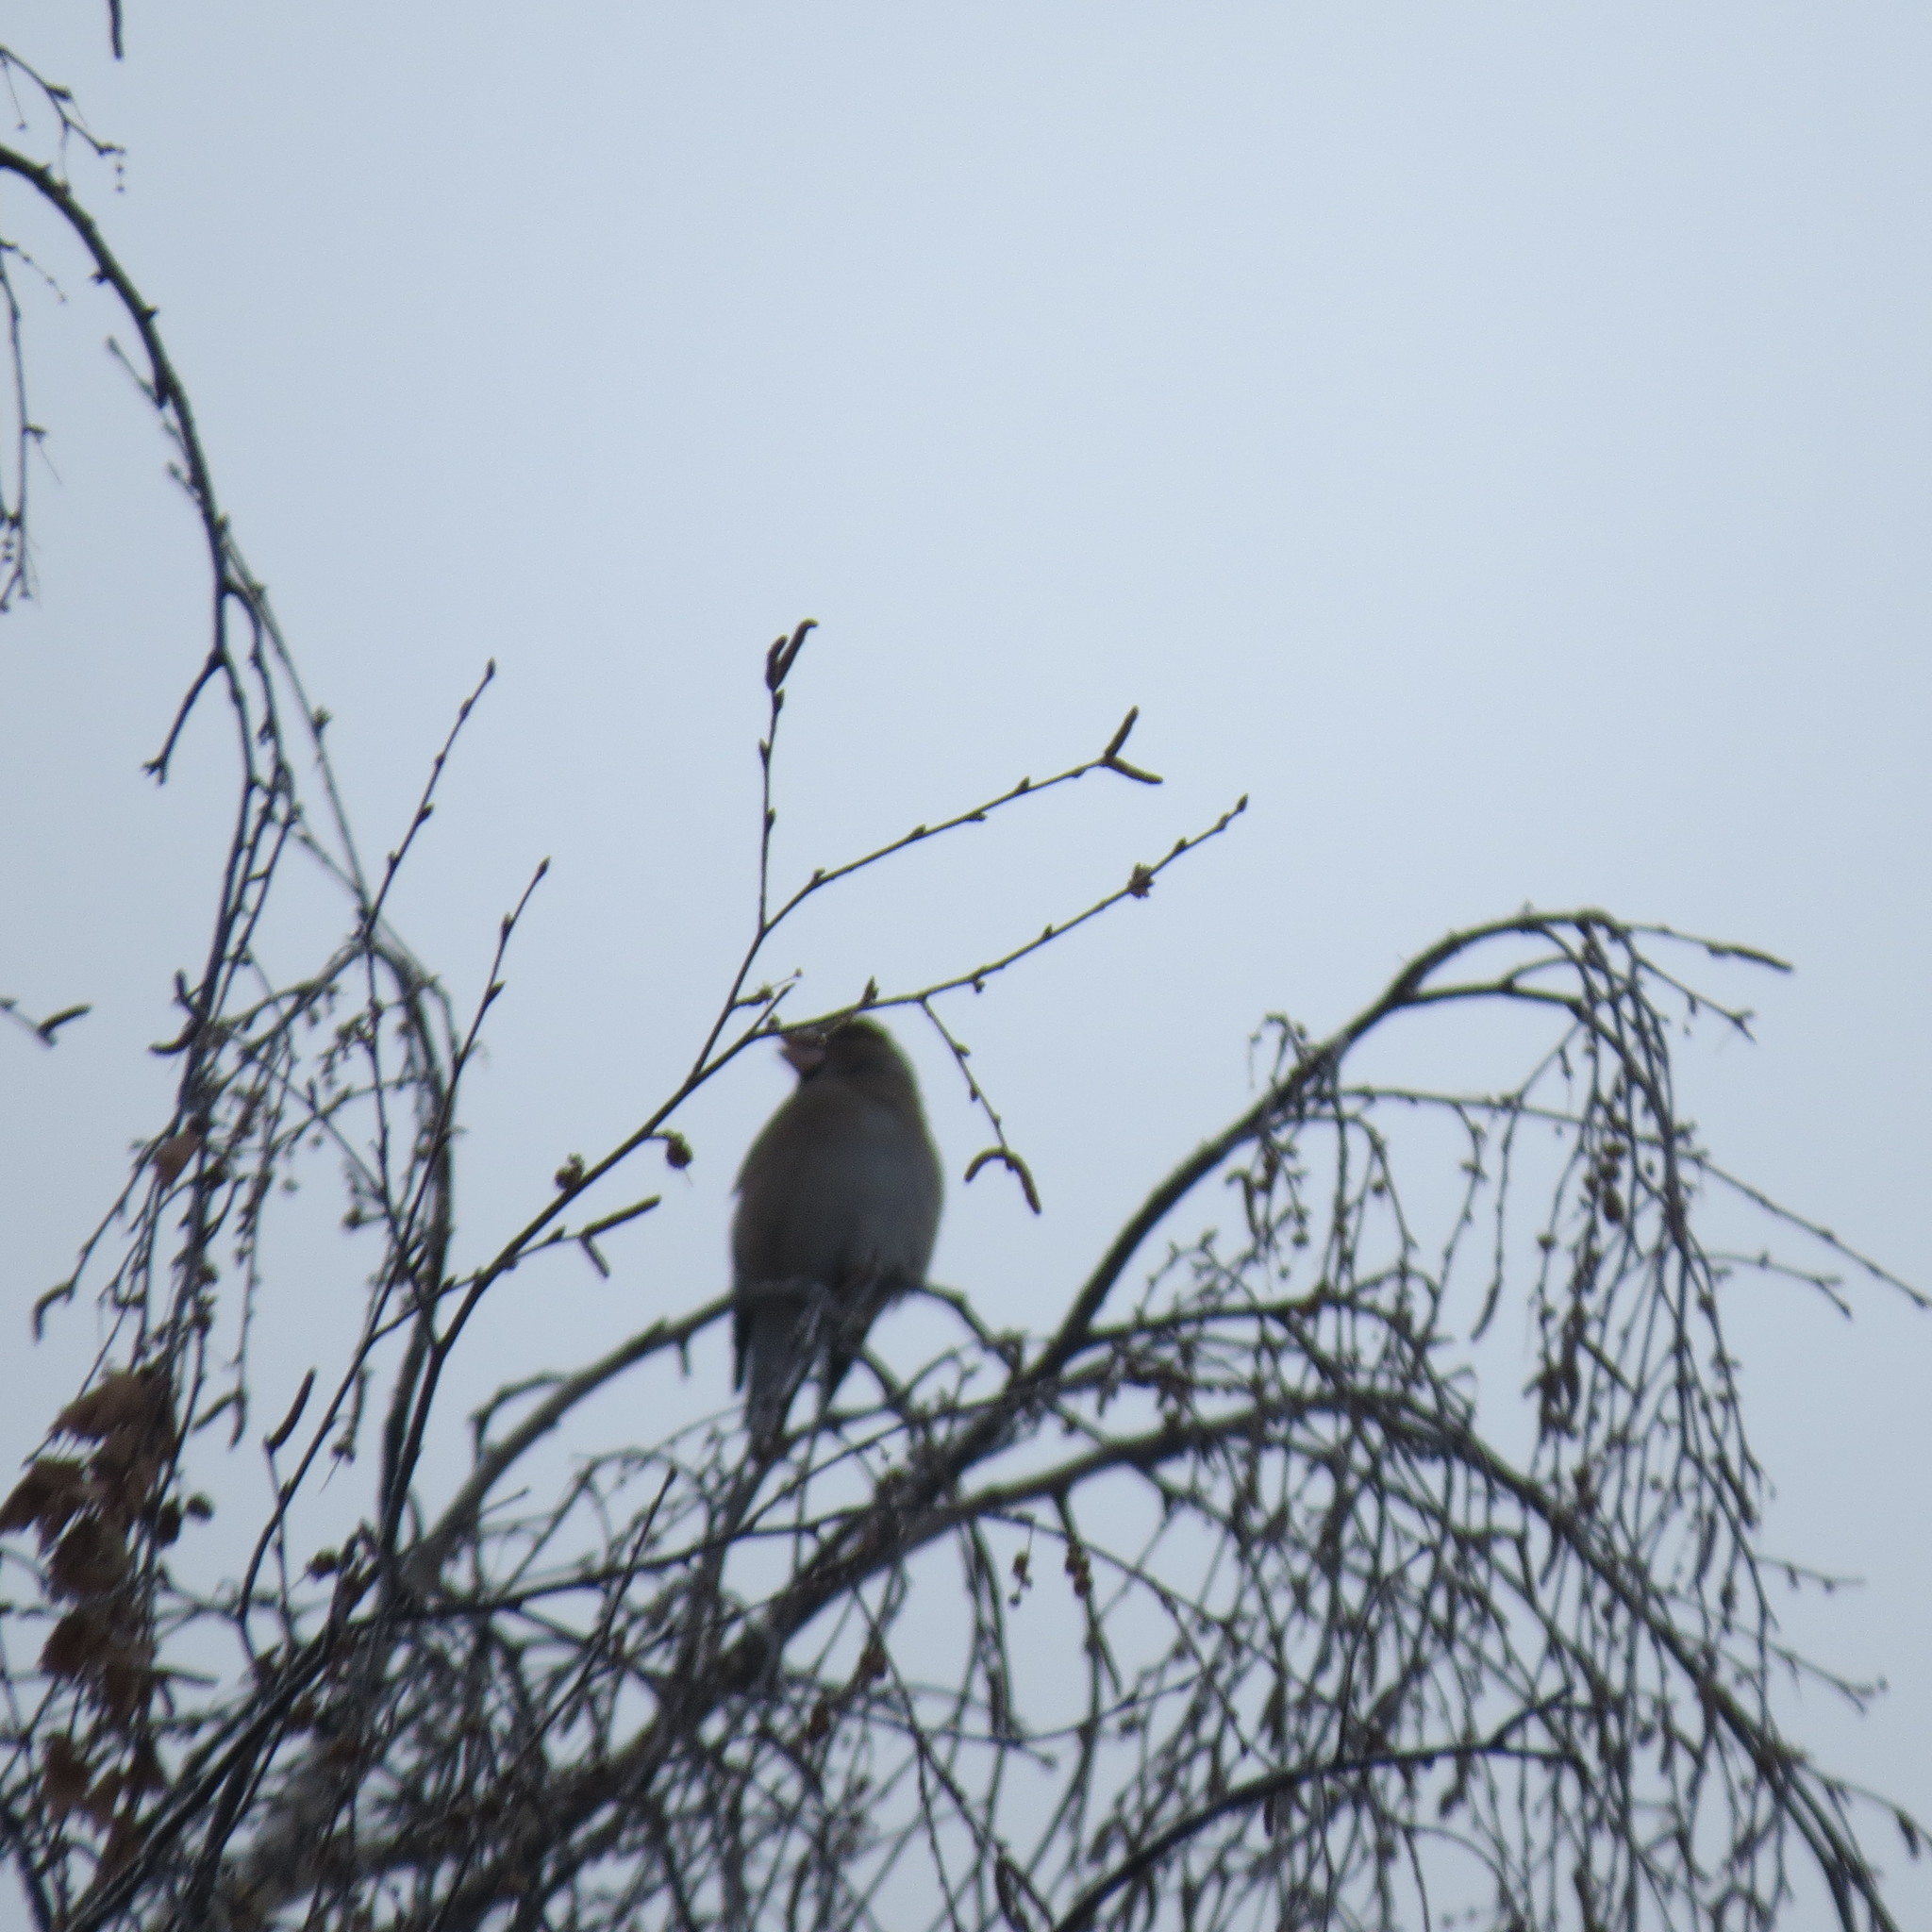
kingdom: Animalia
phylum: Chordata
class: Aves
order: Passeriformes
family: Fringillidae
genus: Coccothraustes
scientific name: Coccothraustes coccothraustes
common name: Hawfinch
